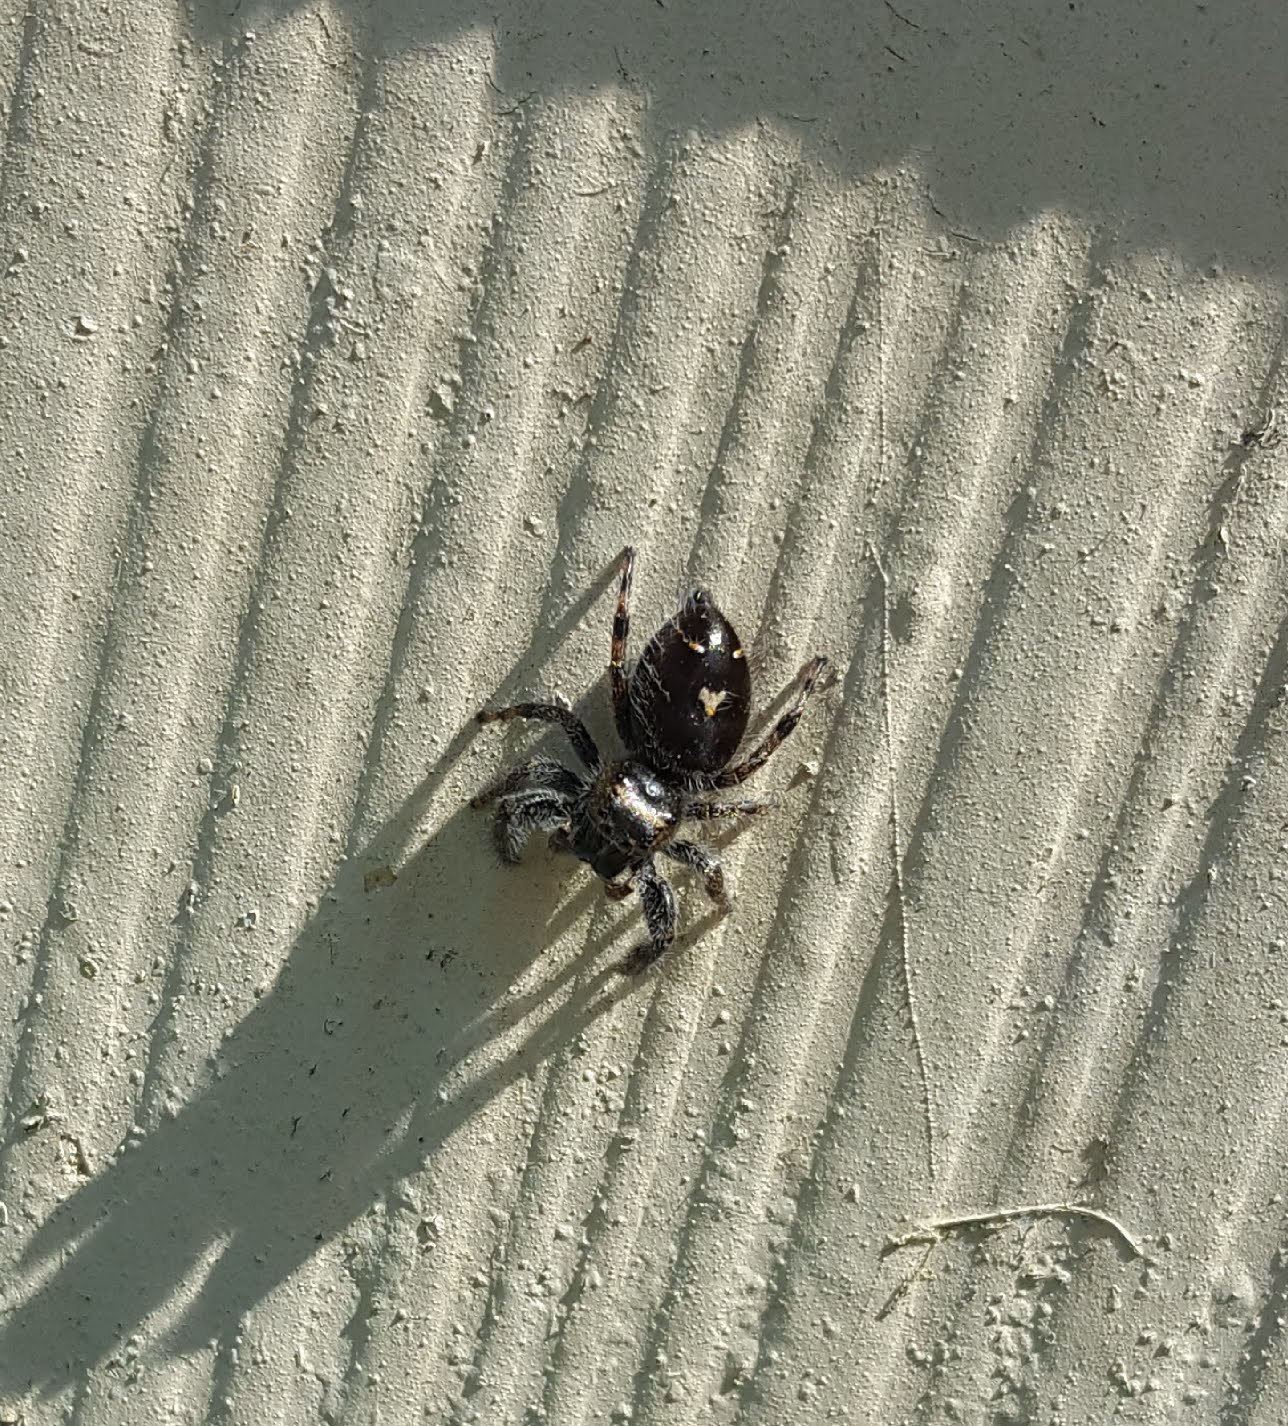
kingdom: Animalia
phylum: Arthropoda
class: Arachnida
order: Araneae
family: Salticidae
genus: Phidippus
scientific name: Phidippus audax
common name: Bold jumper
